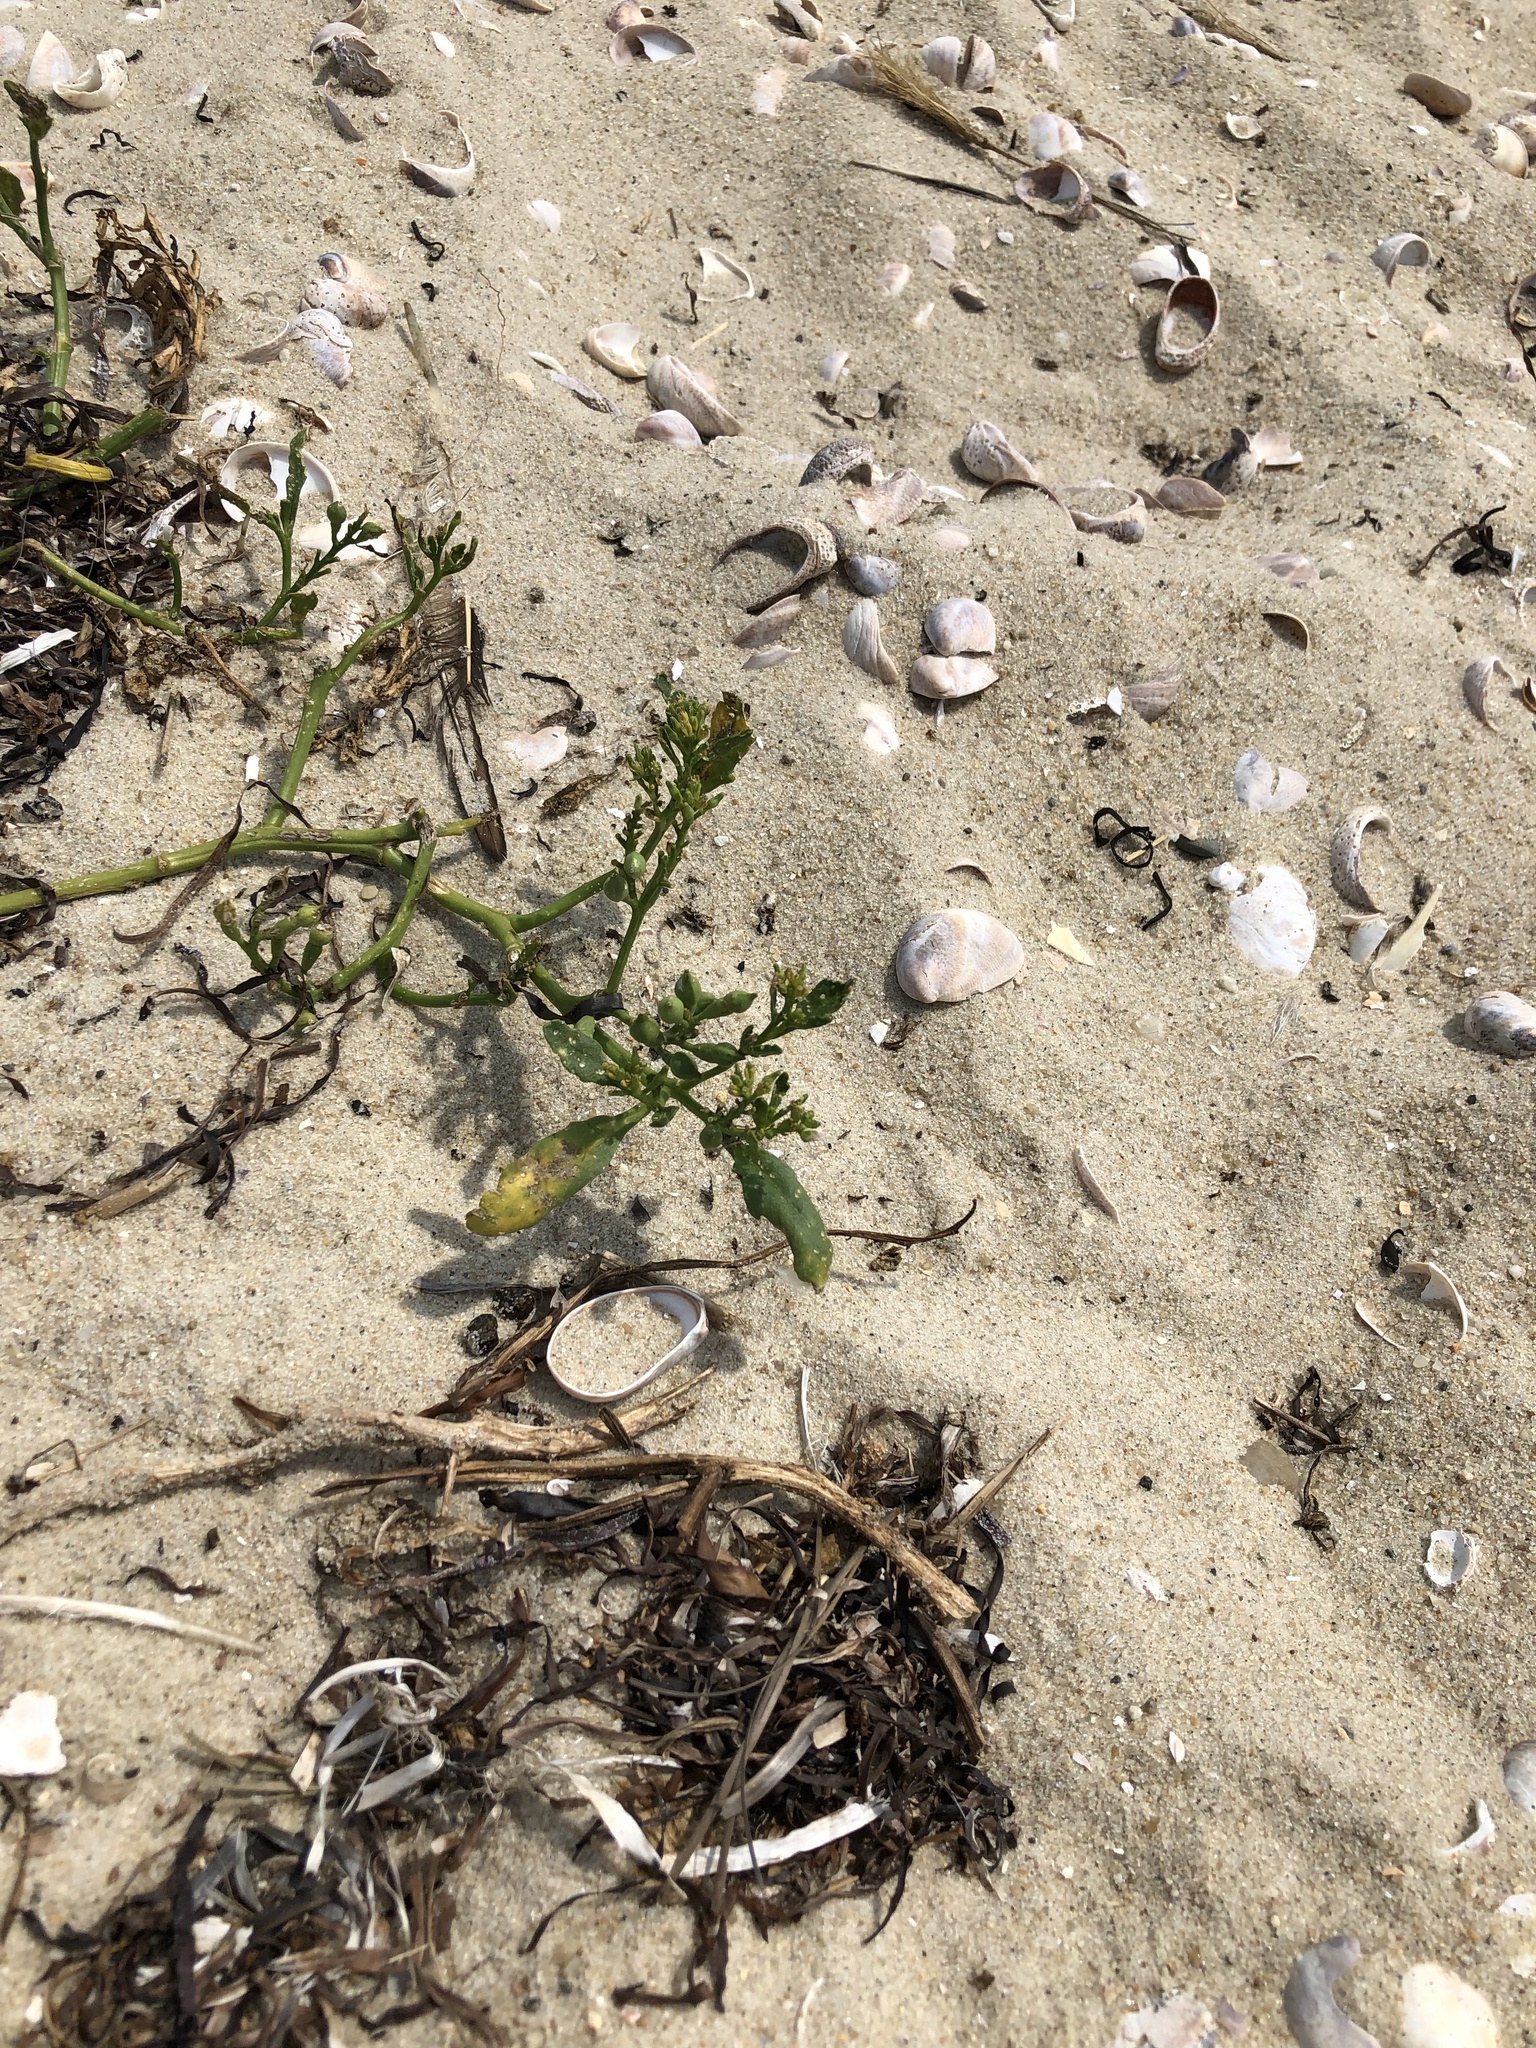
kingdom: Plantae
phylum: Tracheophyta
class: Magnoliopsida
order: Brassicales
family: Brassicaceae
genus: Cakile
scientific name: Cakile edentula
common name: American sea rocket
